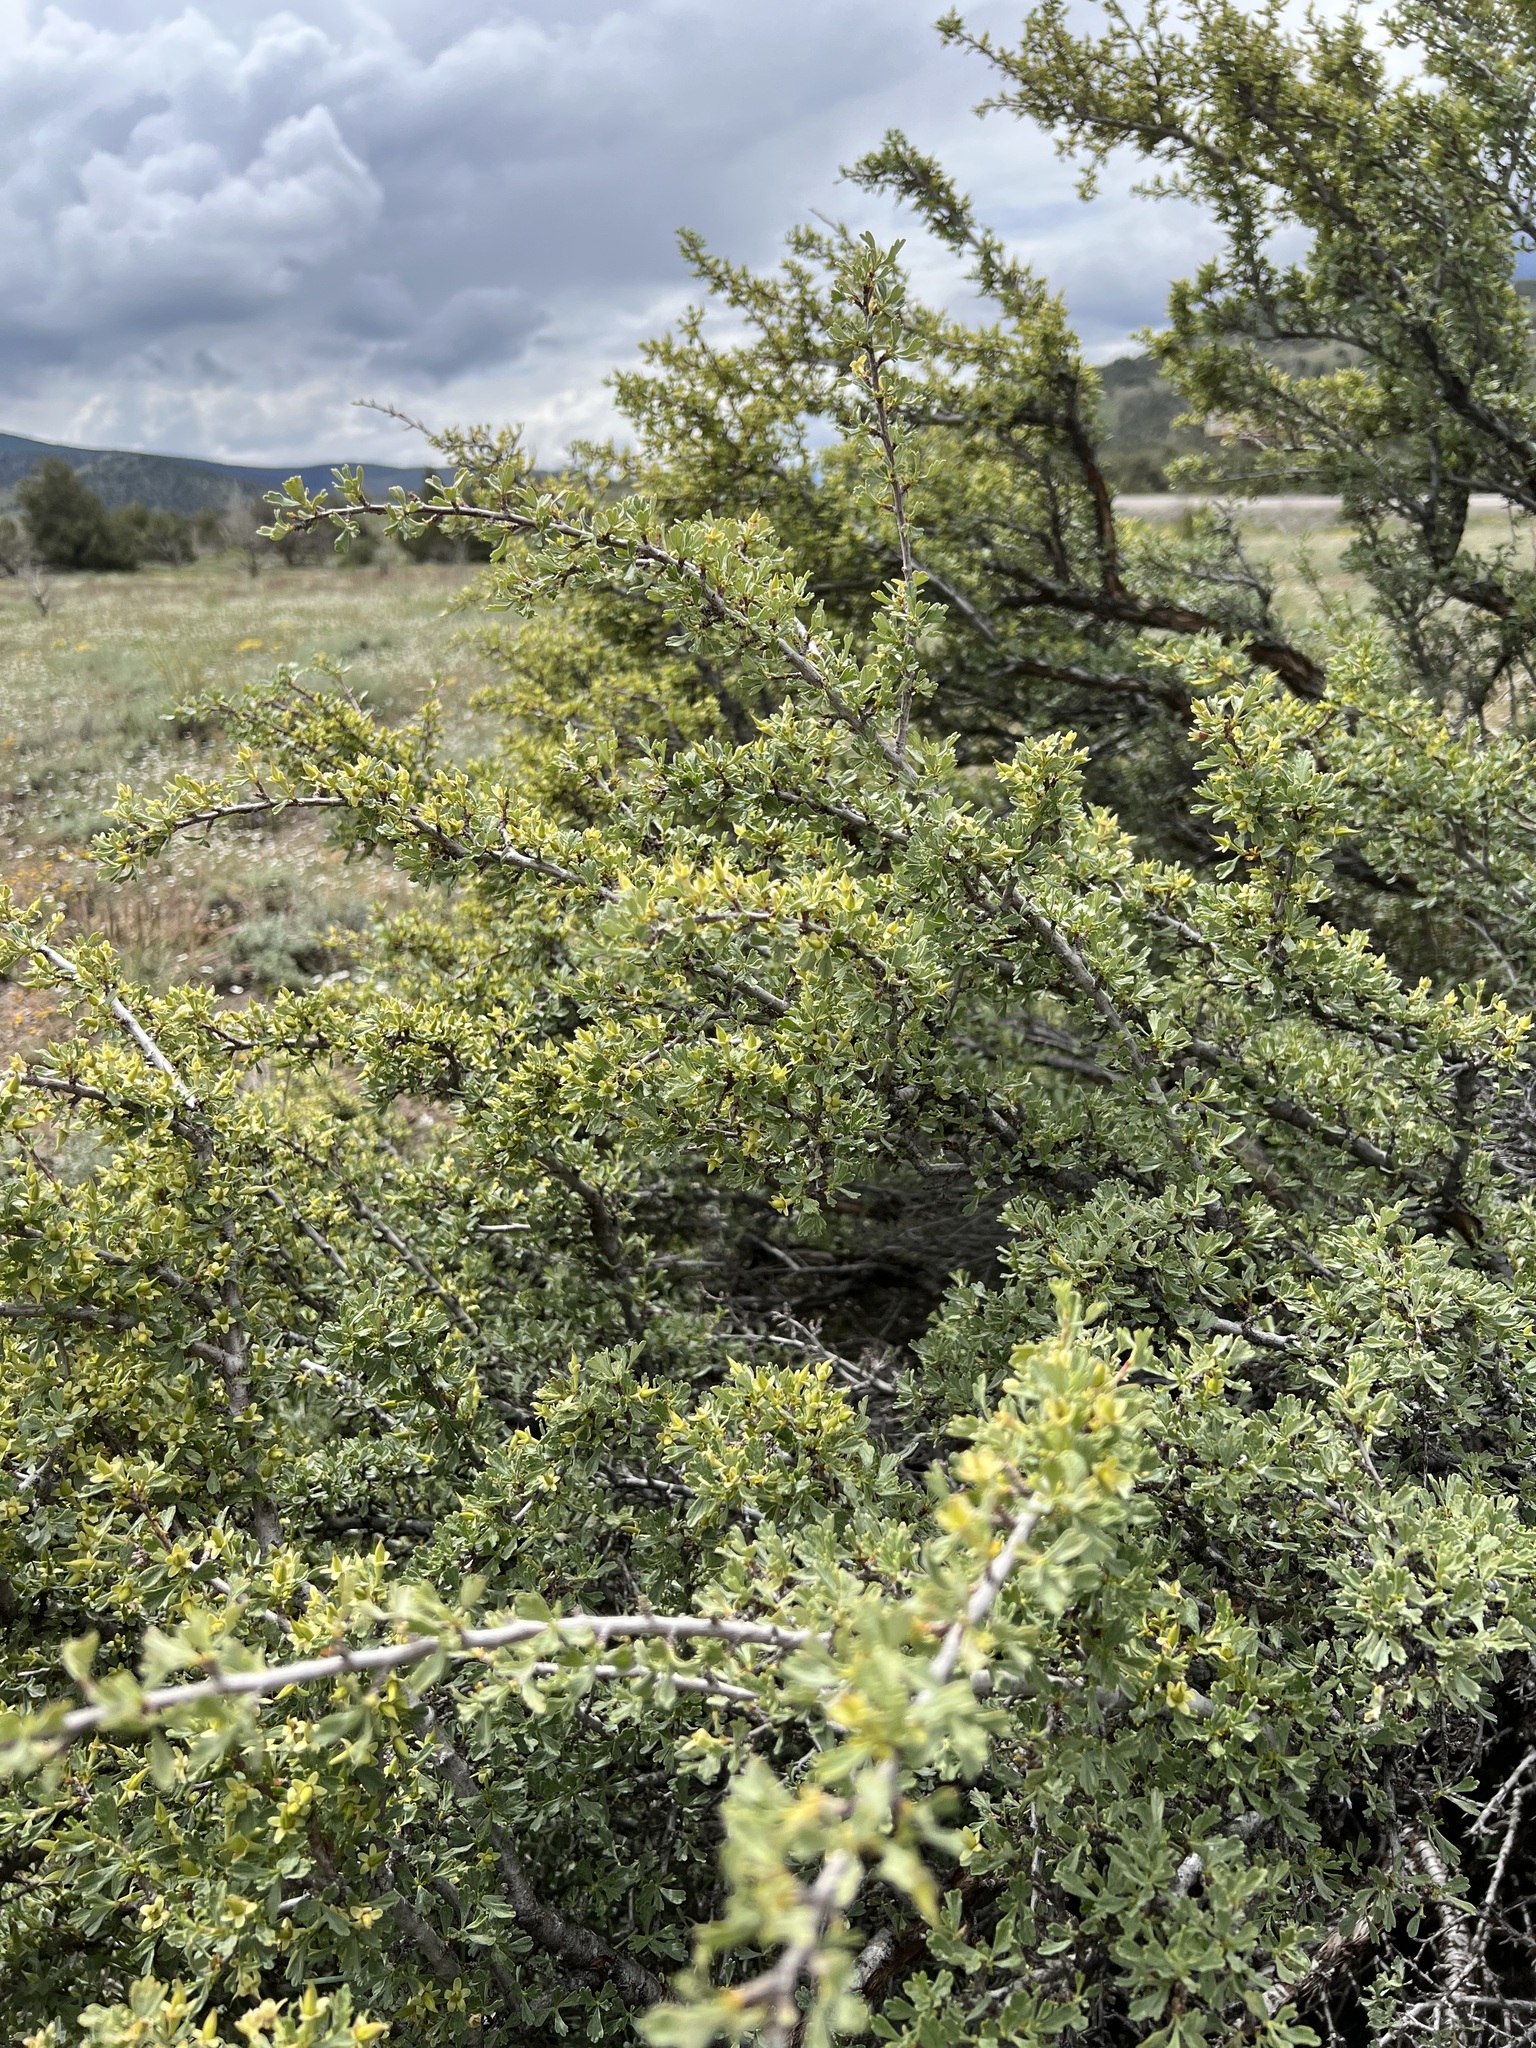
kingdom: Plantae
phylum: Tracheophyta
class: Magnoliopsida
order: Rosales
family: Rosaceae
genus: Purshia
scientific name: Purshia tridentata
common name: Antelope bitterbrush
